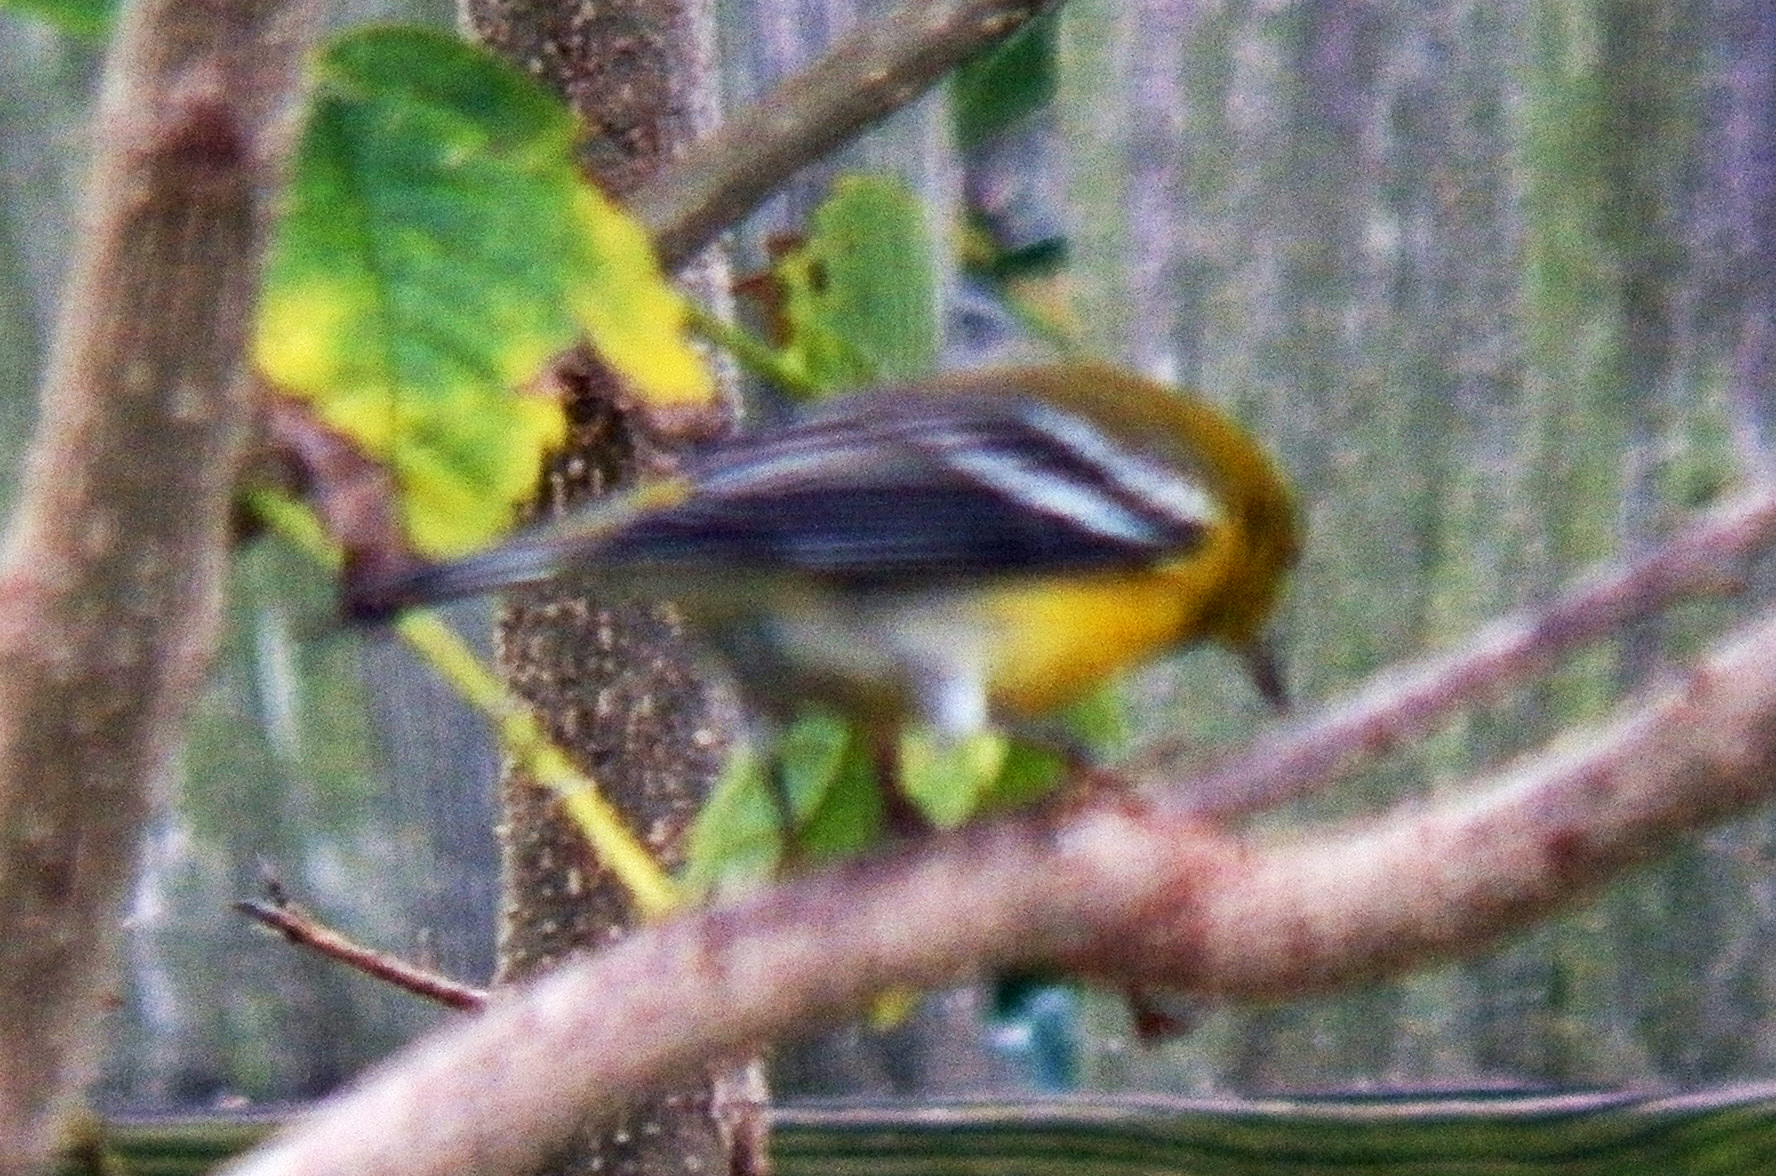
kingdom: Animalia
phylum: Chordata
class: Aves
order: Passeriformes
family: Parulidae
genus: Setophaga
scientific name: Setophaga pinus
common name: Pine warbler
